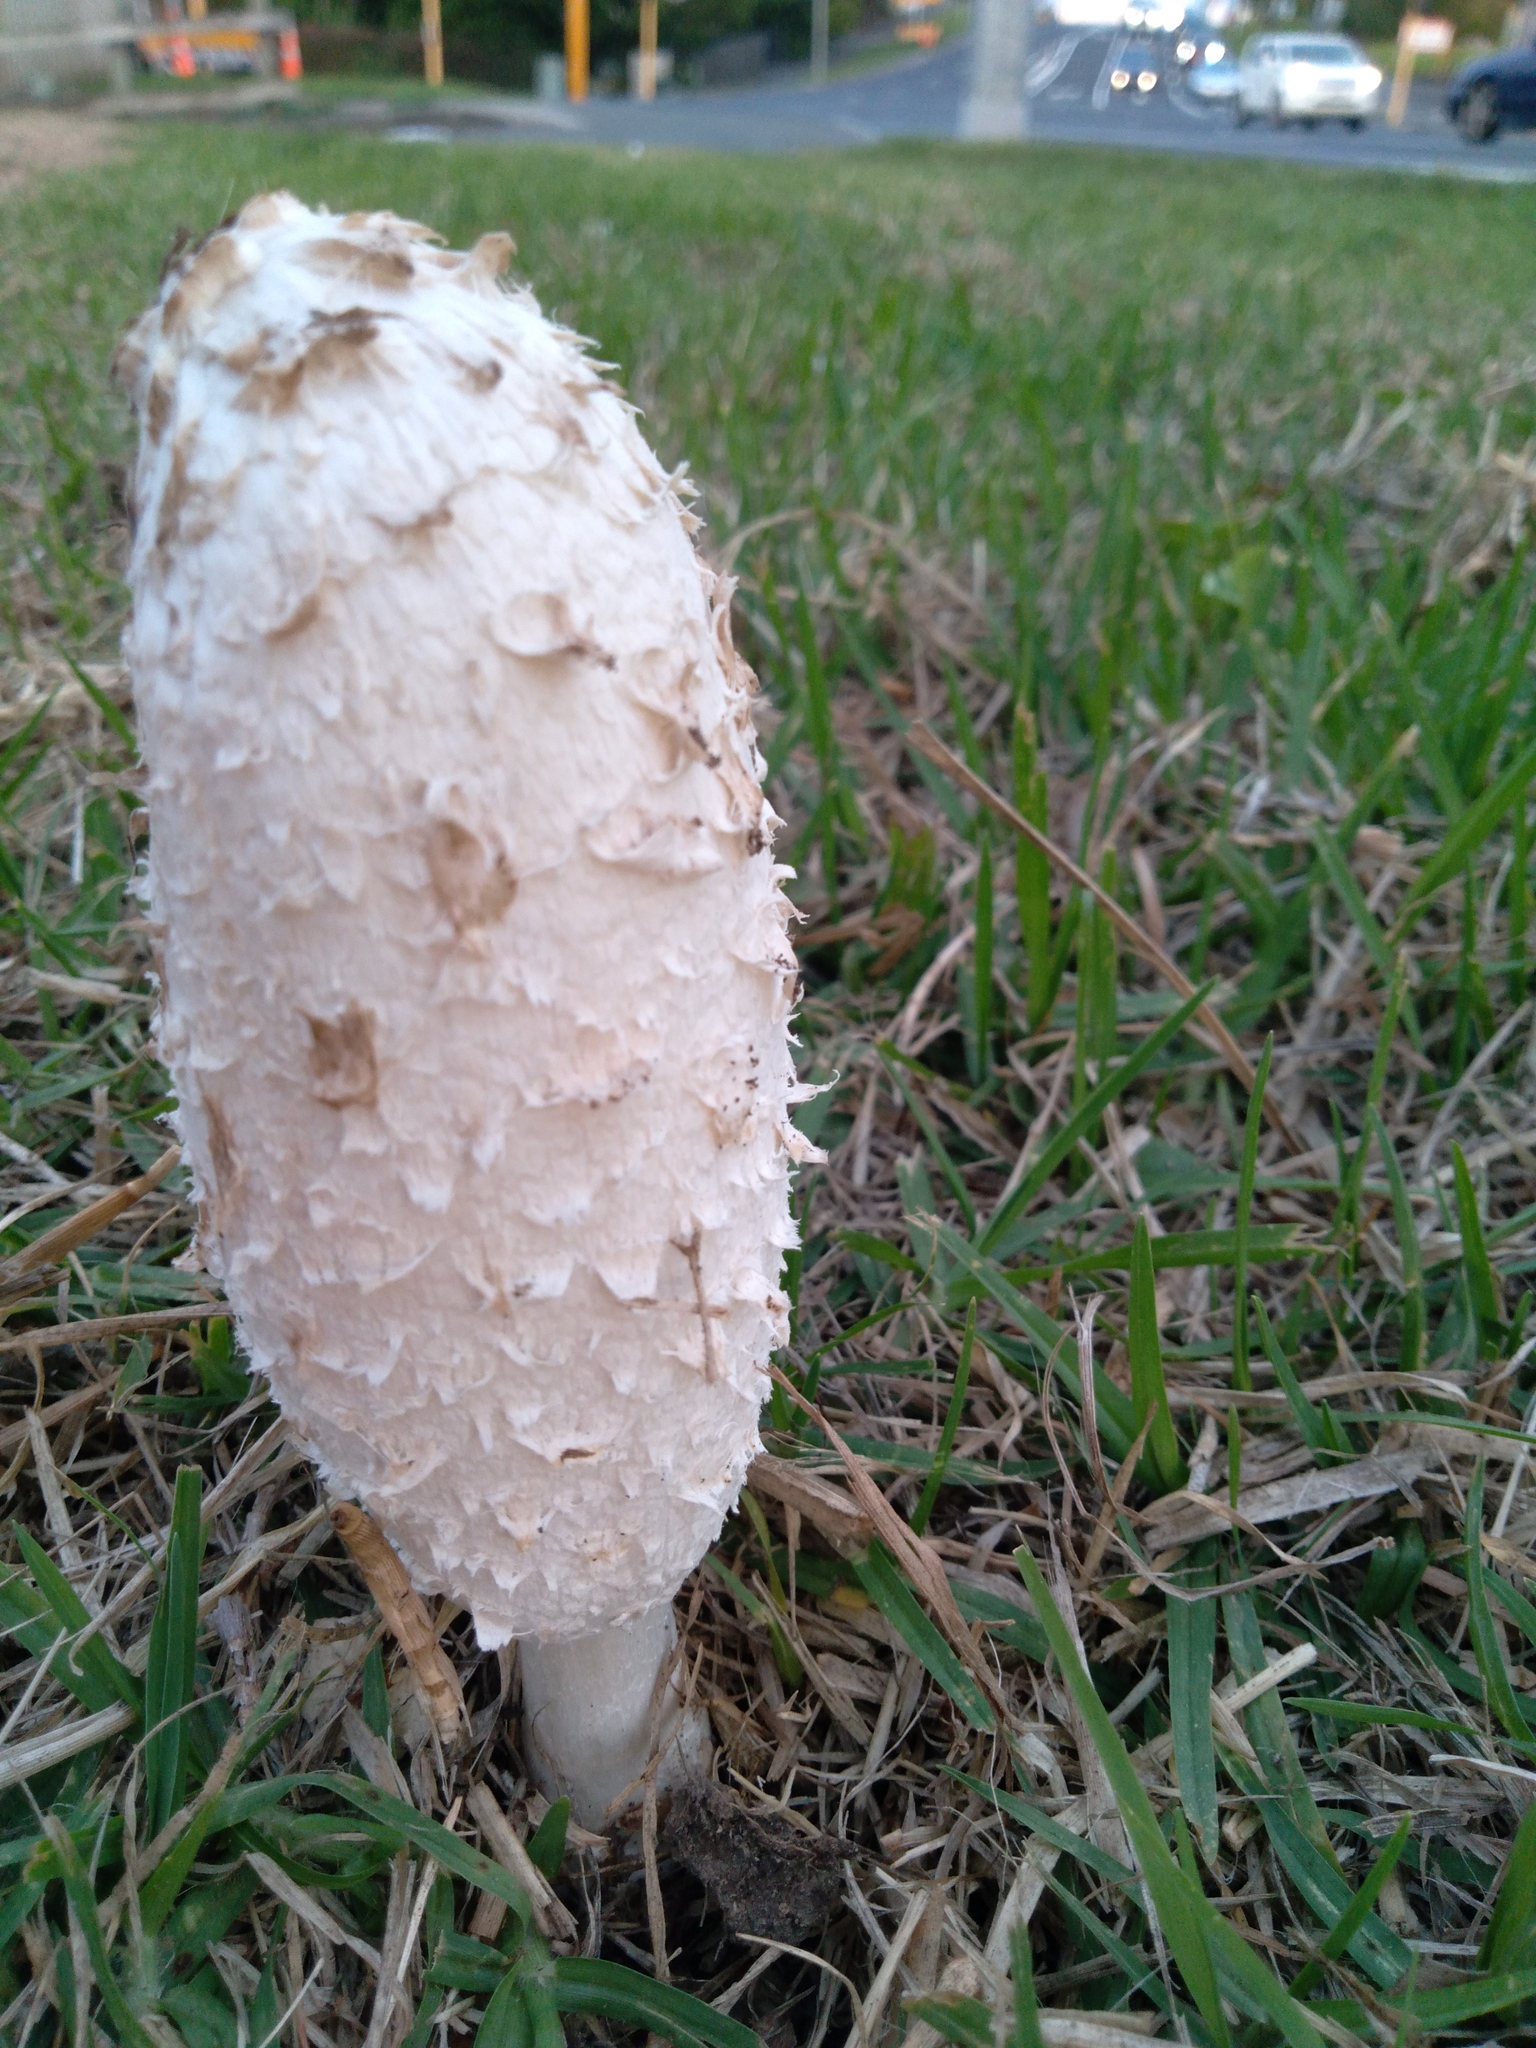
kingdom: Fungi
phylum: Basidiomycota
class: Agaricomycetes
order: Agaricales
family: Agaricaceae
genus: Coprinus
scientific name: Coprinus comatus
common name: Lawyer's wig
